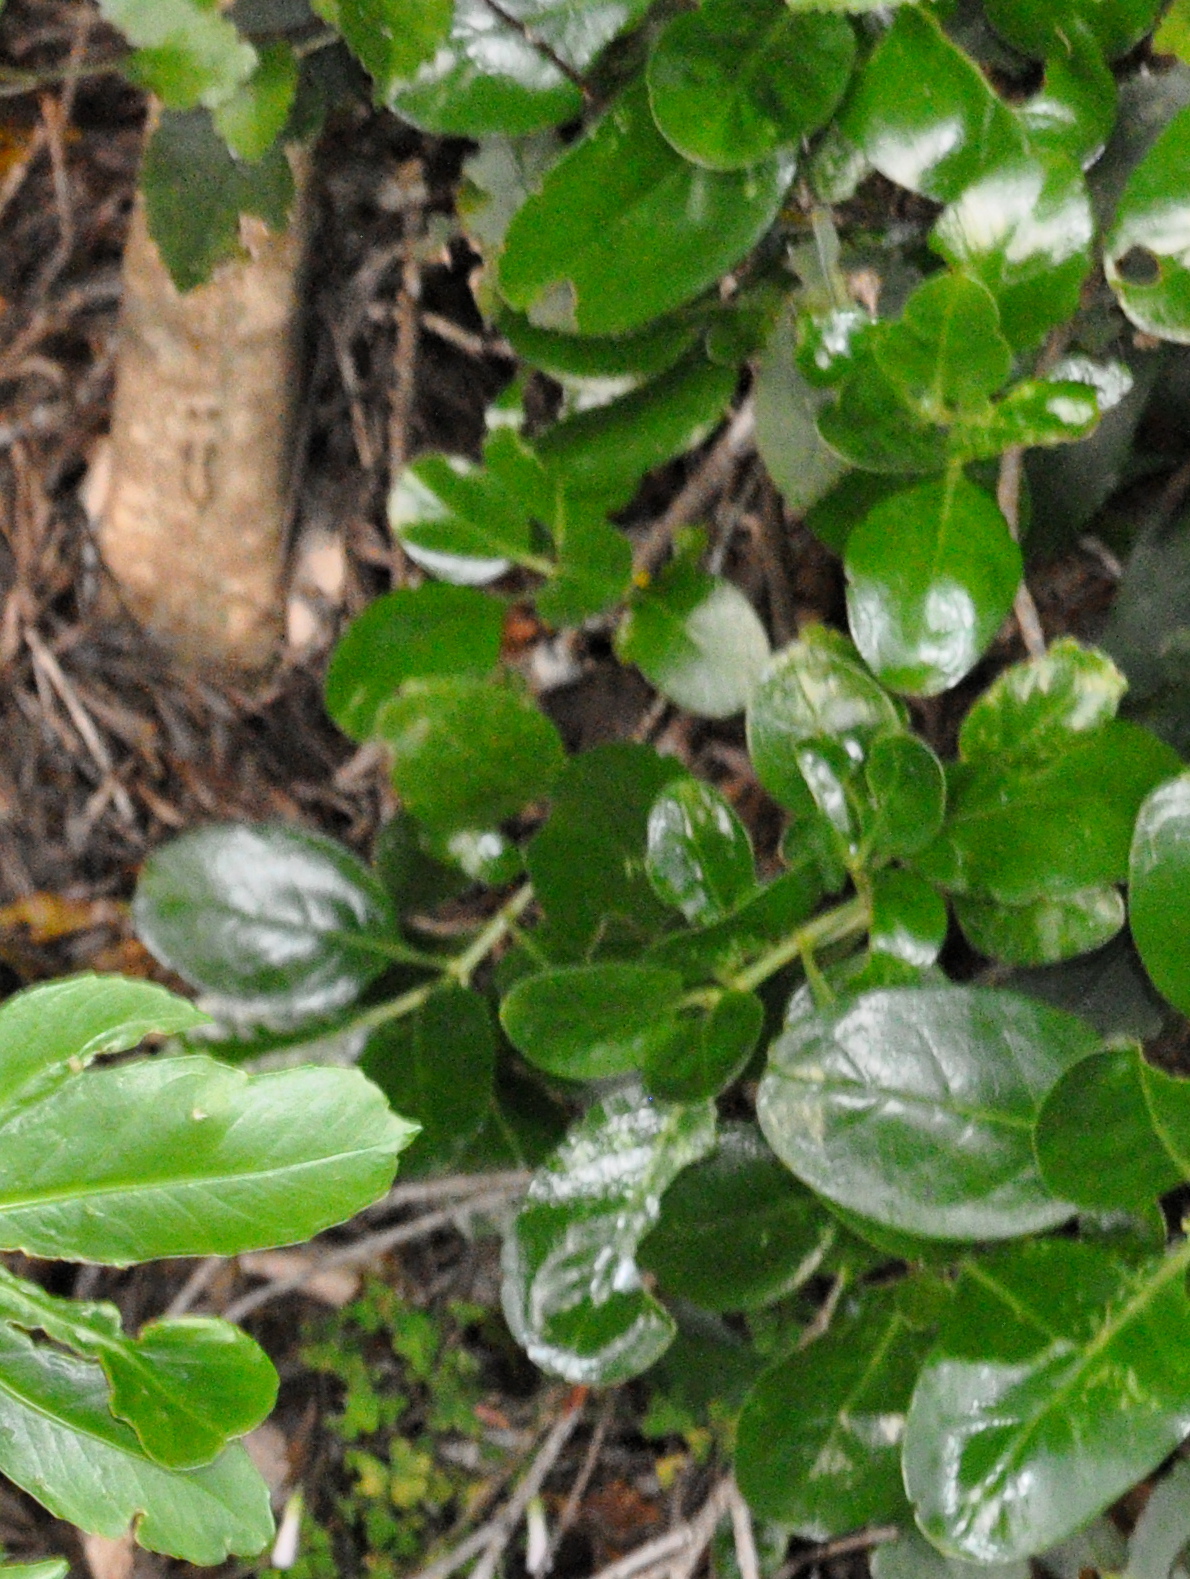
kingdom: Plantae
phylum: Tracheophyta
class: Magnoliopsida
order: Gentianales
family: Rubiaceae
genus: Coprosma
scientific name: Coprosma repens
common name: Tree bedstraw
